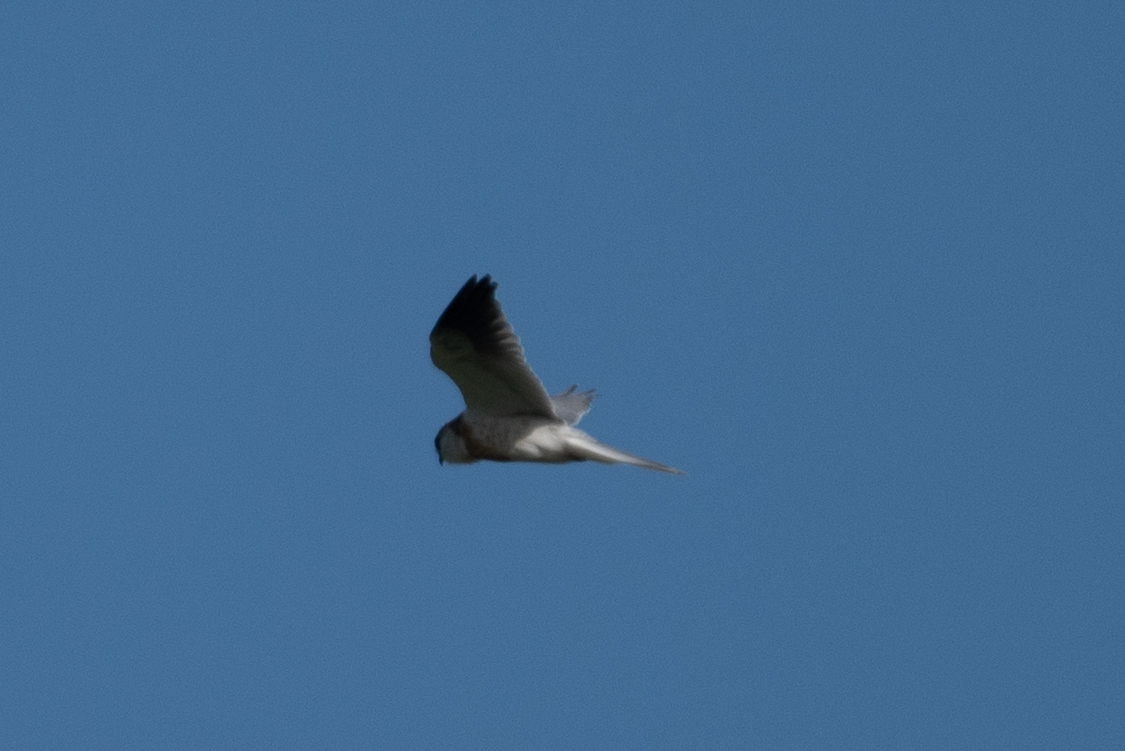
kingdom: Animalia
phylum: Chordata
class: Aves
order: Accipitriformes
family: Accipitridae
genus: Elanus
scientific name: Elanus leucurus
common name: White-tailed kite
